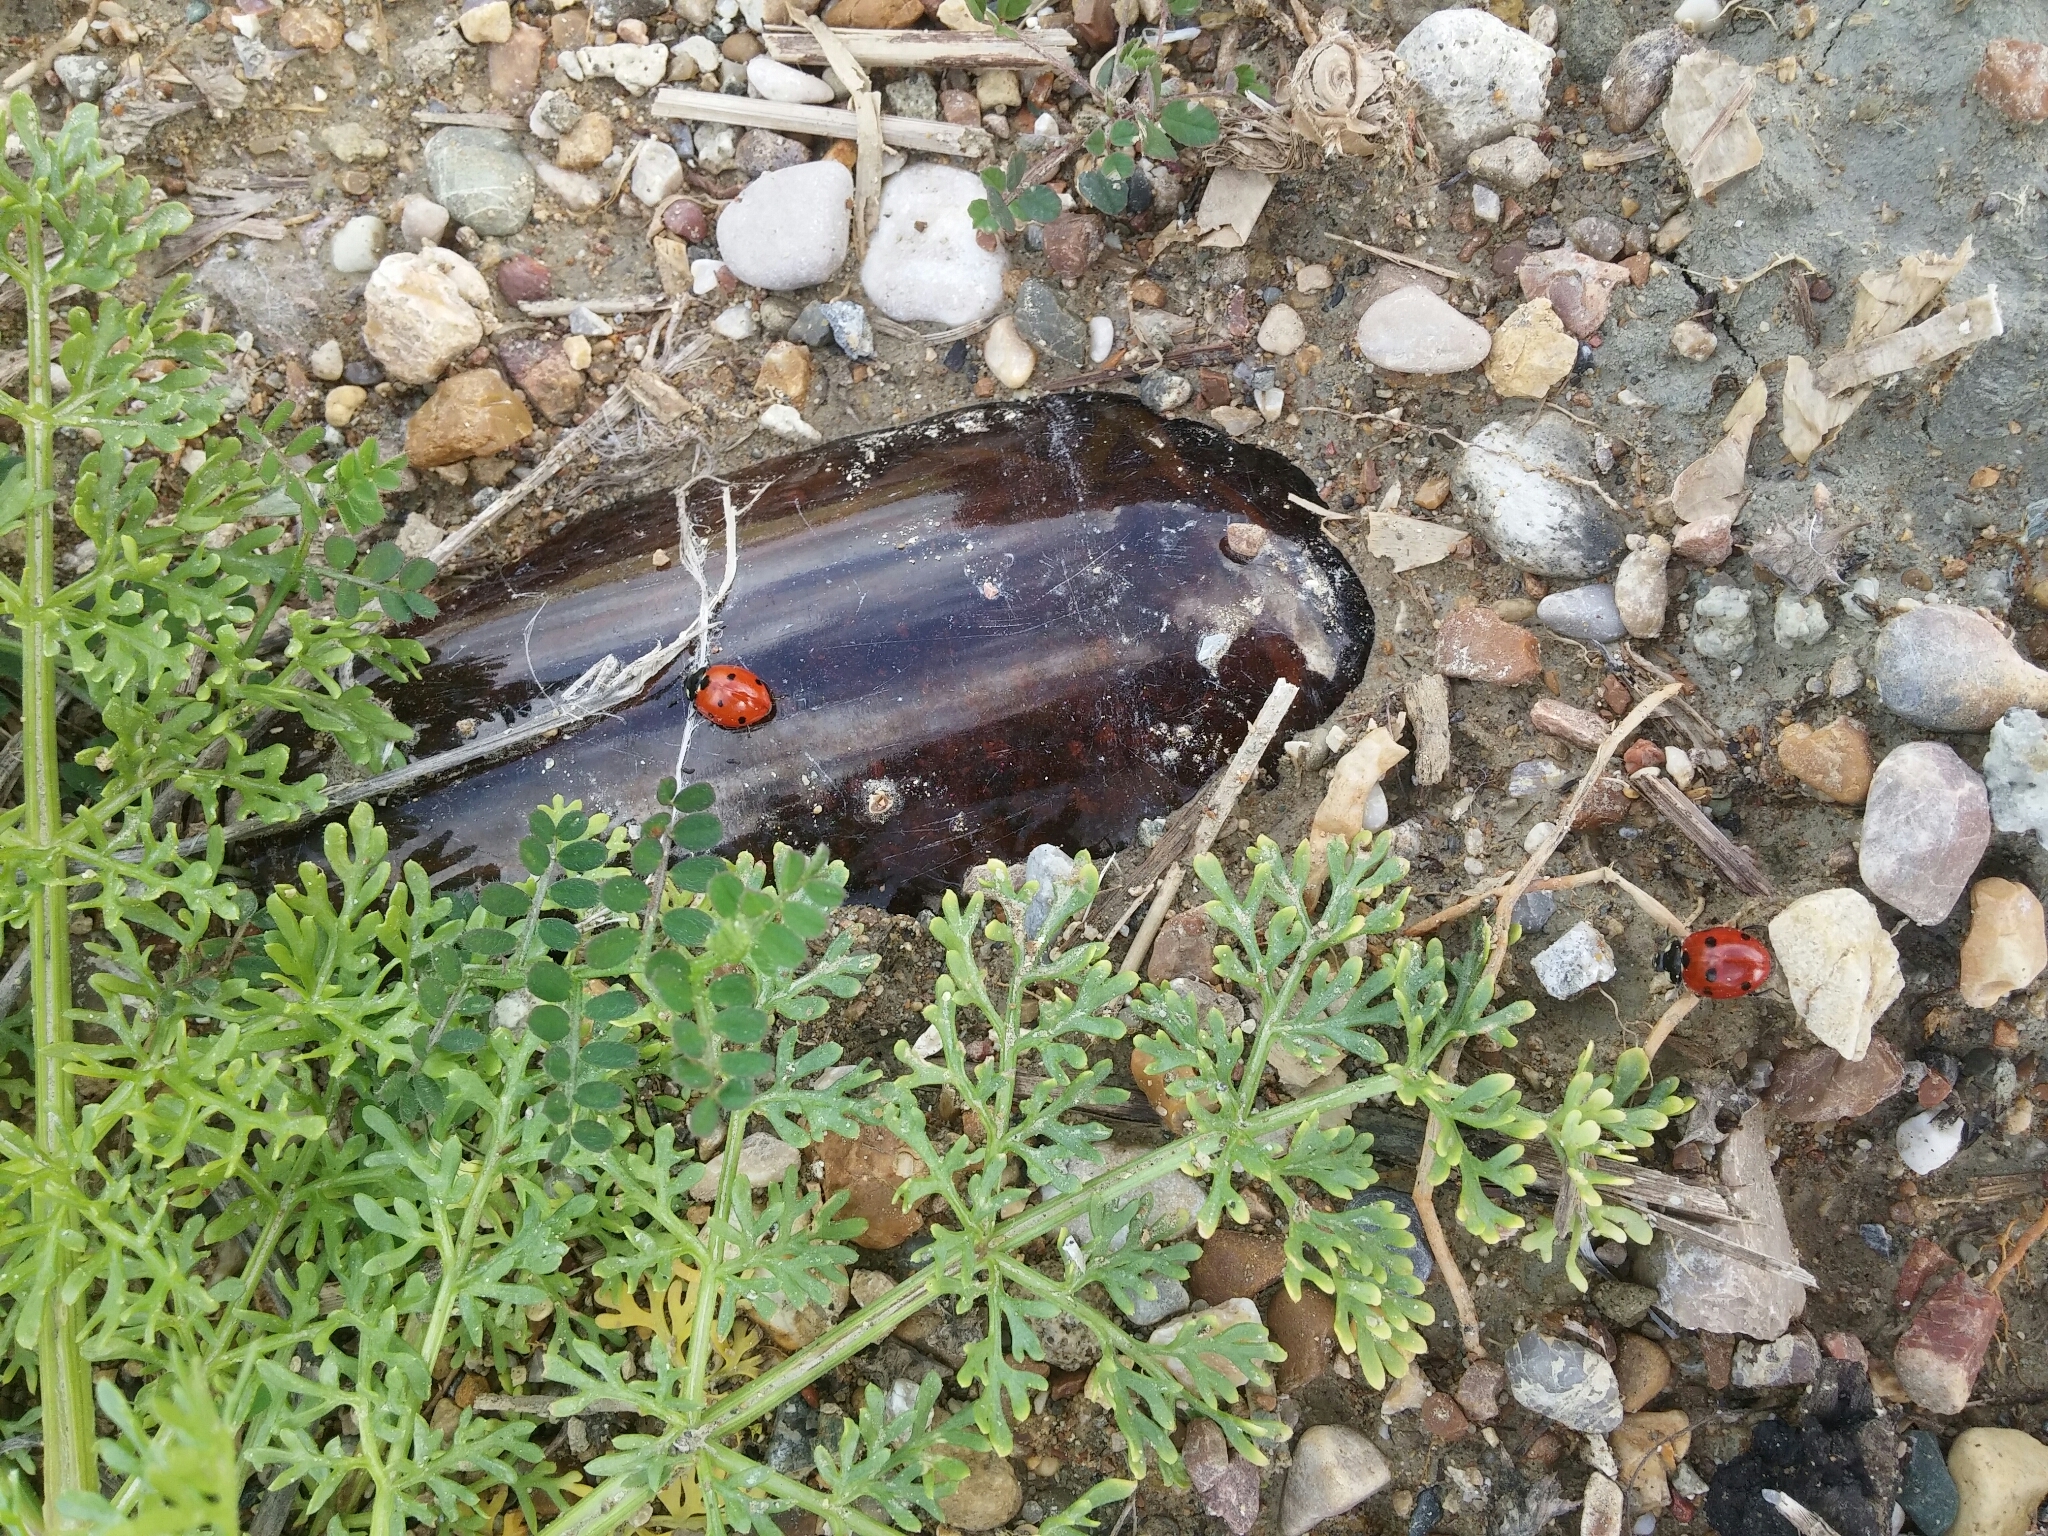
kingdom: Animalia
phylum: Arthropoda
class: Insecta
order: Coleoptera
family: Coccinellidae
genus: Coccinella
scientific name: Coccinella septempunctata
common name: Sevenspotted lady beetle
